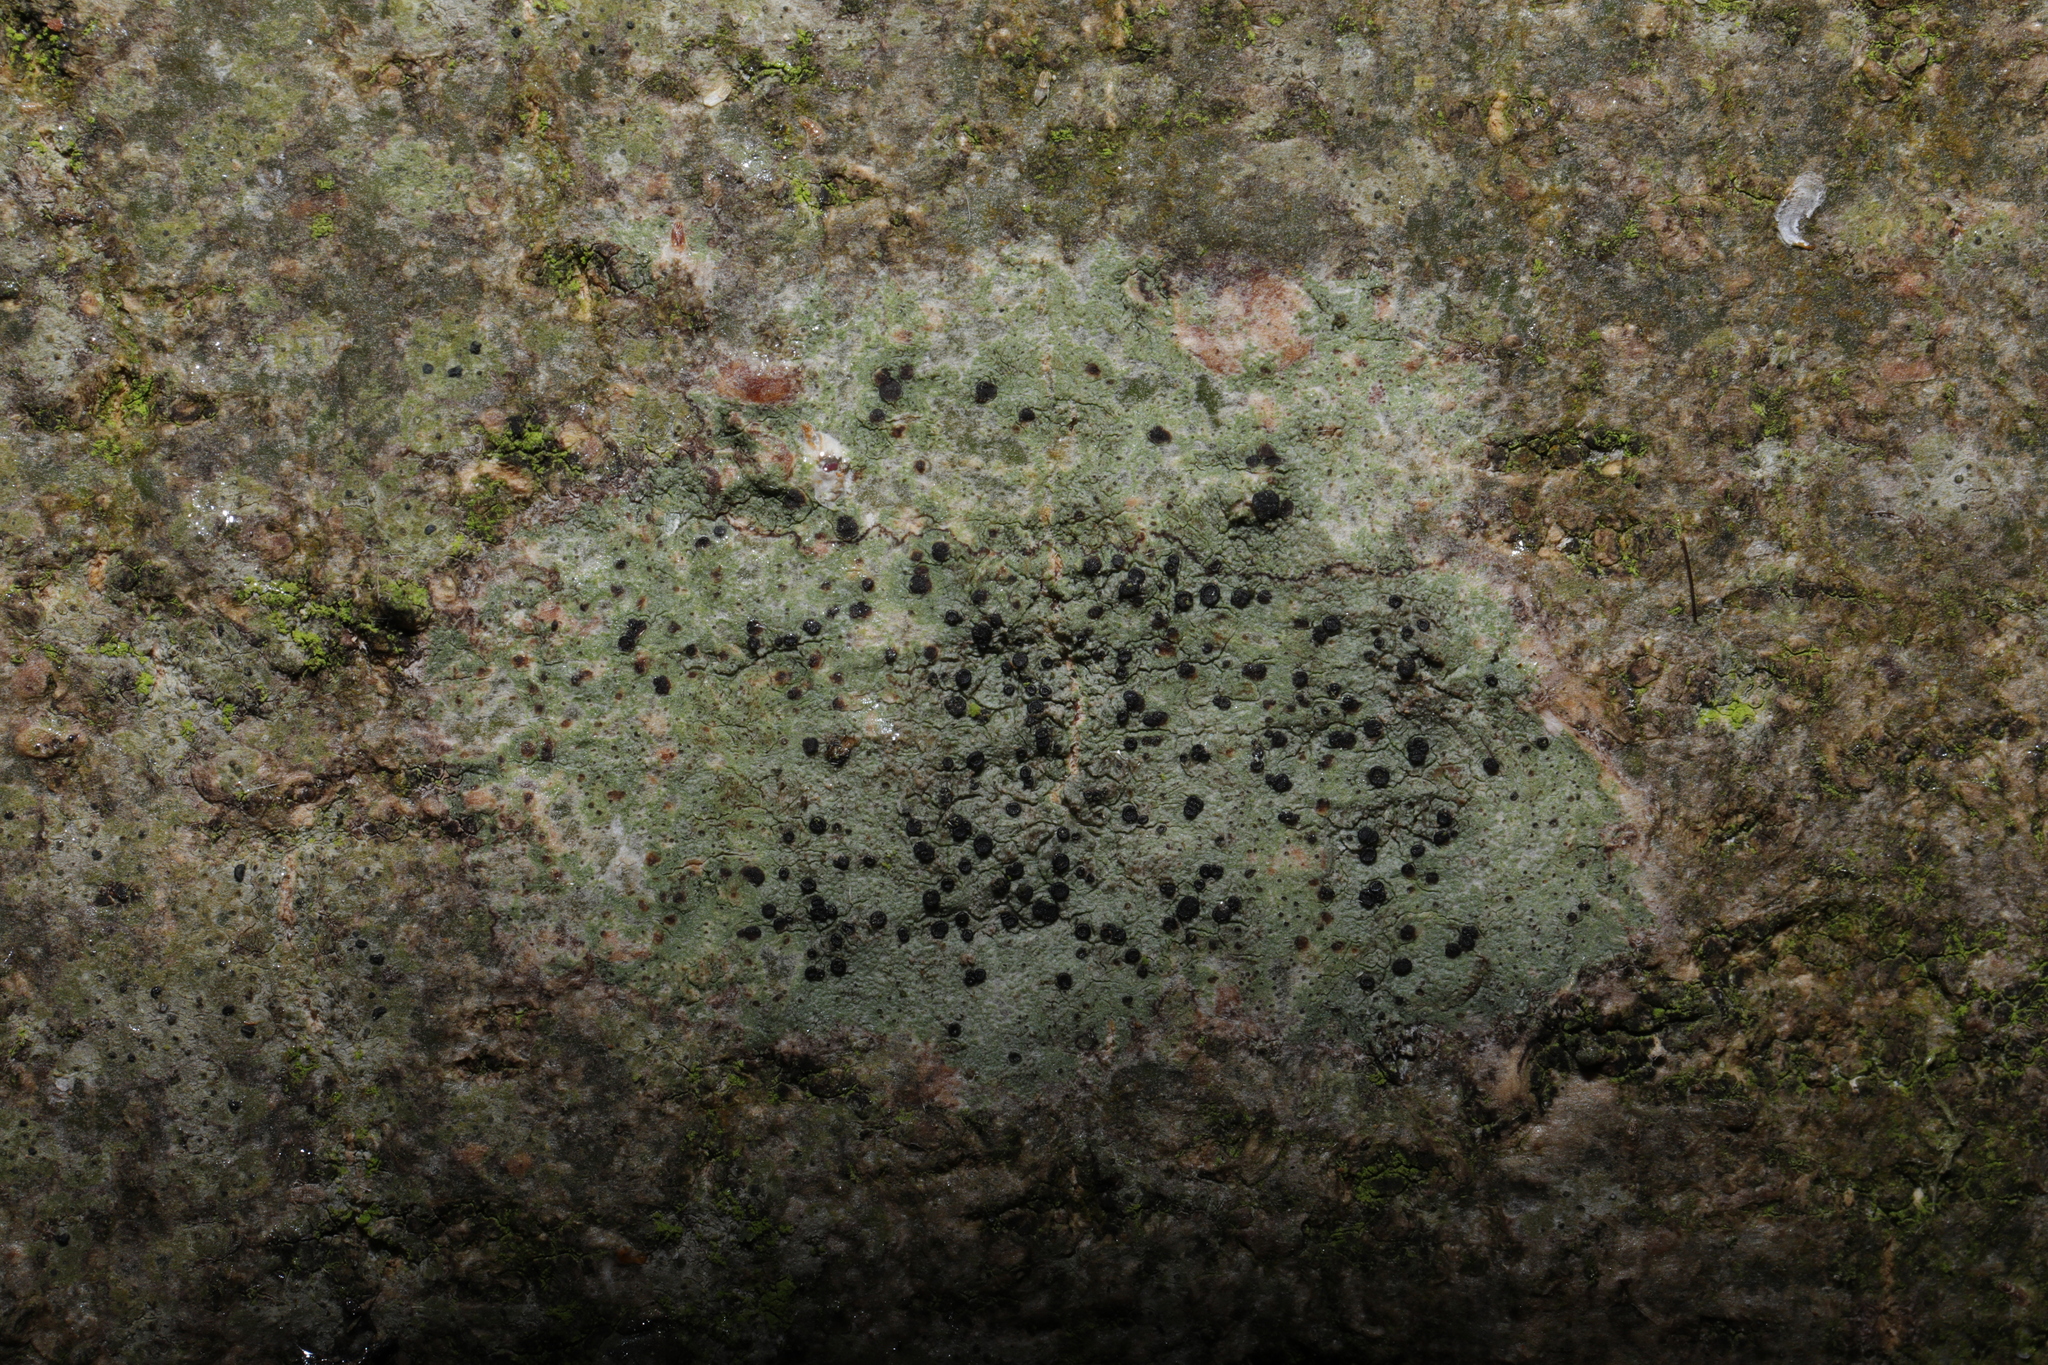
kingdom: Fungi
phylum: Ascomycota
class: Lecanoromycetes
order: Lecanorales
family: Lecanoraceae
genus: Lecidella
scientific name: Lecidella elaeochroma
